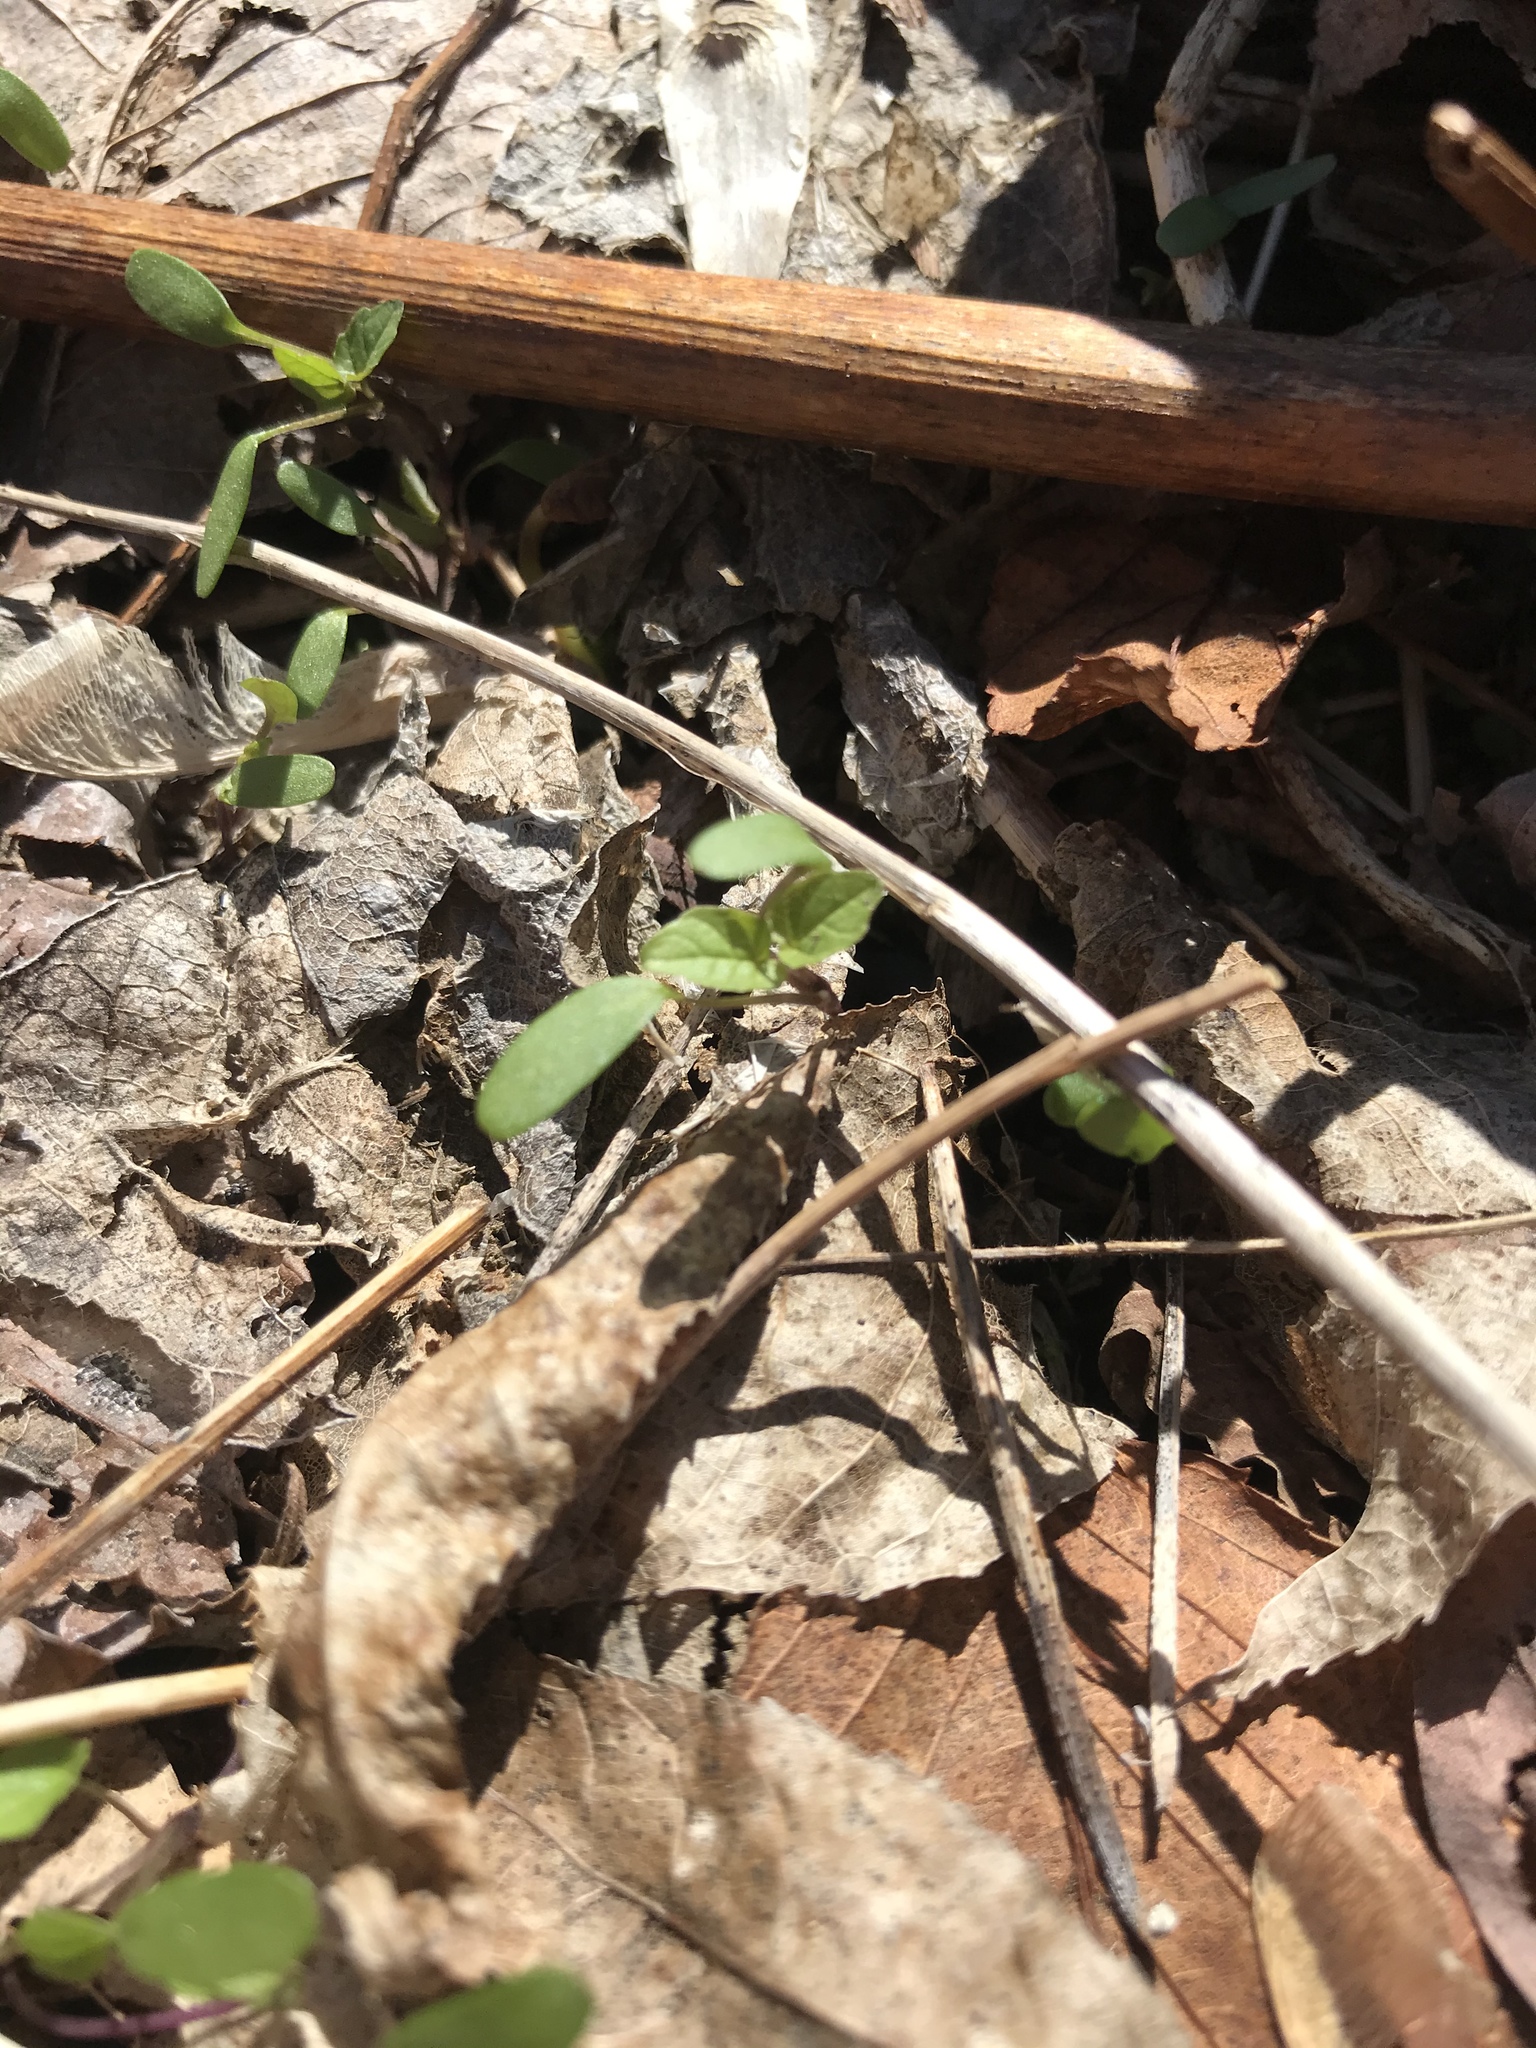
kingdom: Plantae
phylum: Tracheophyta
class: Magnoliopsida
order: Brassicales
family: Brassicaceae
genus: Alliaria
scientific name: Alliaria petiolata
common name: Garlic mustard
